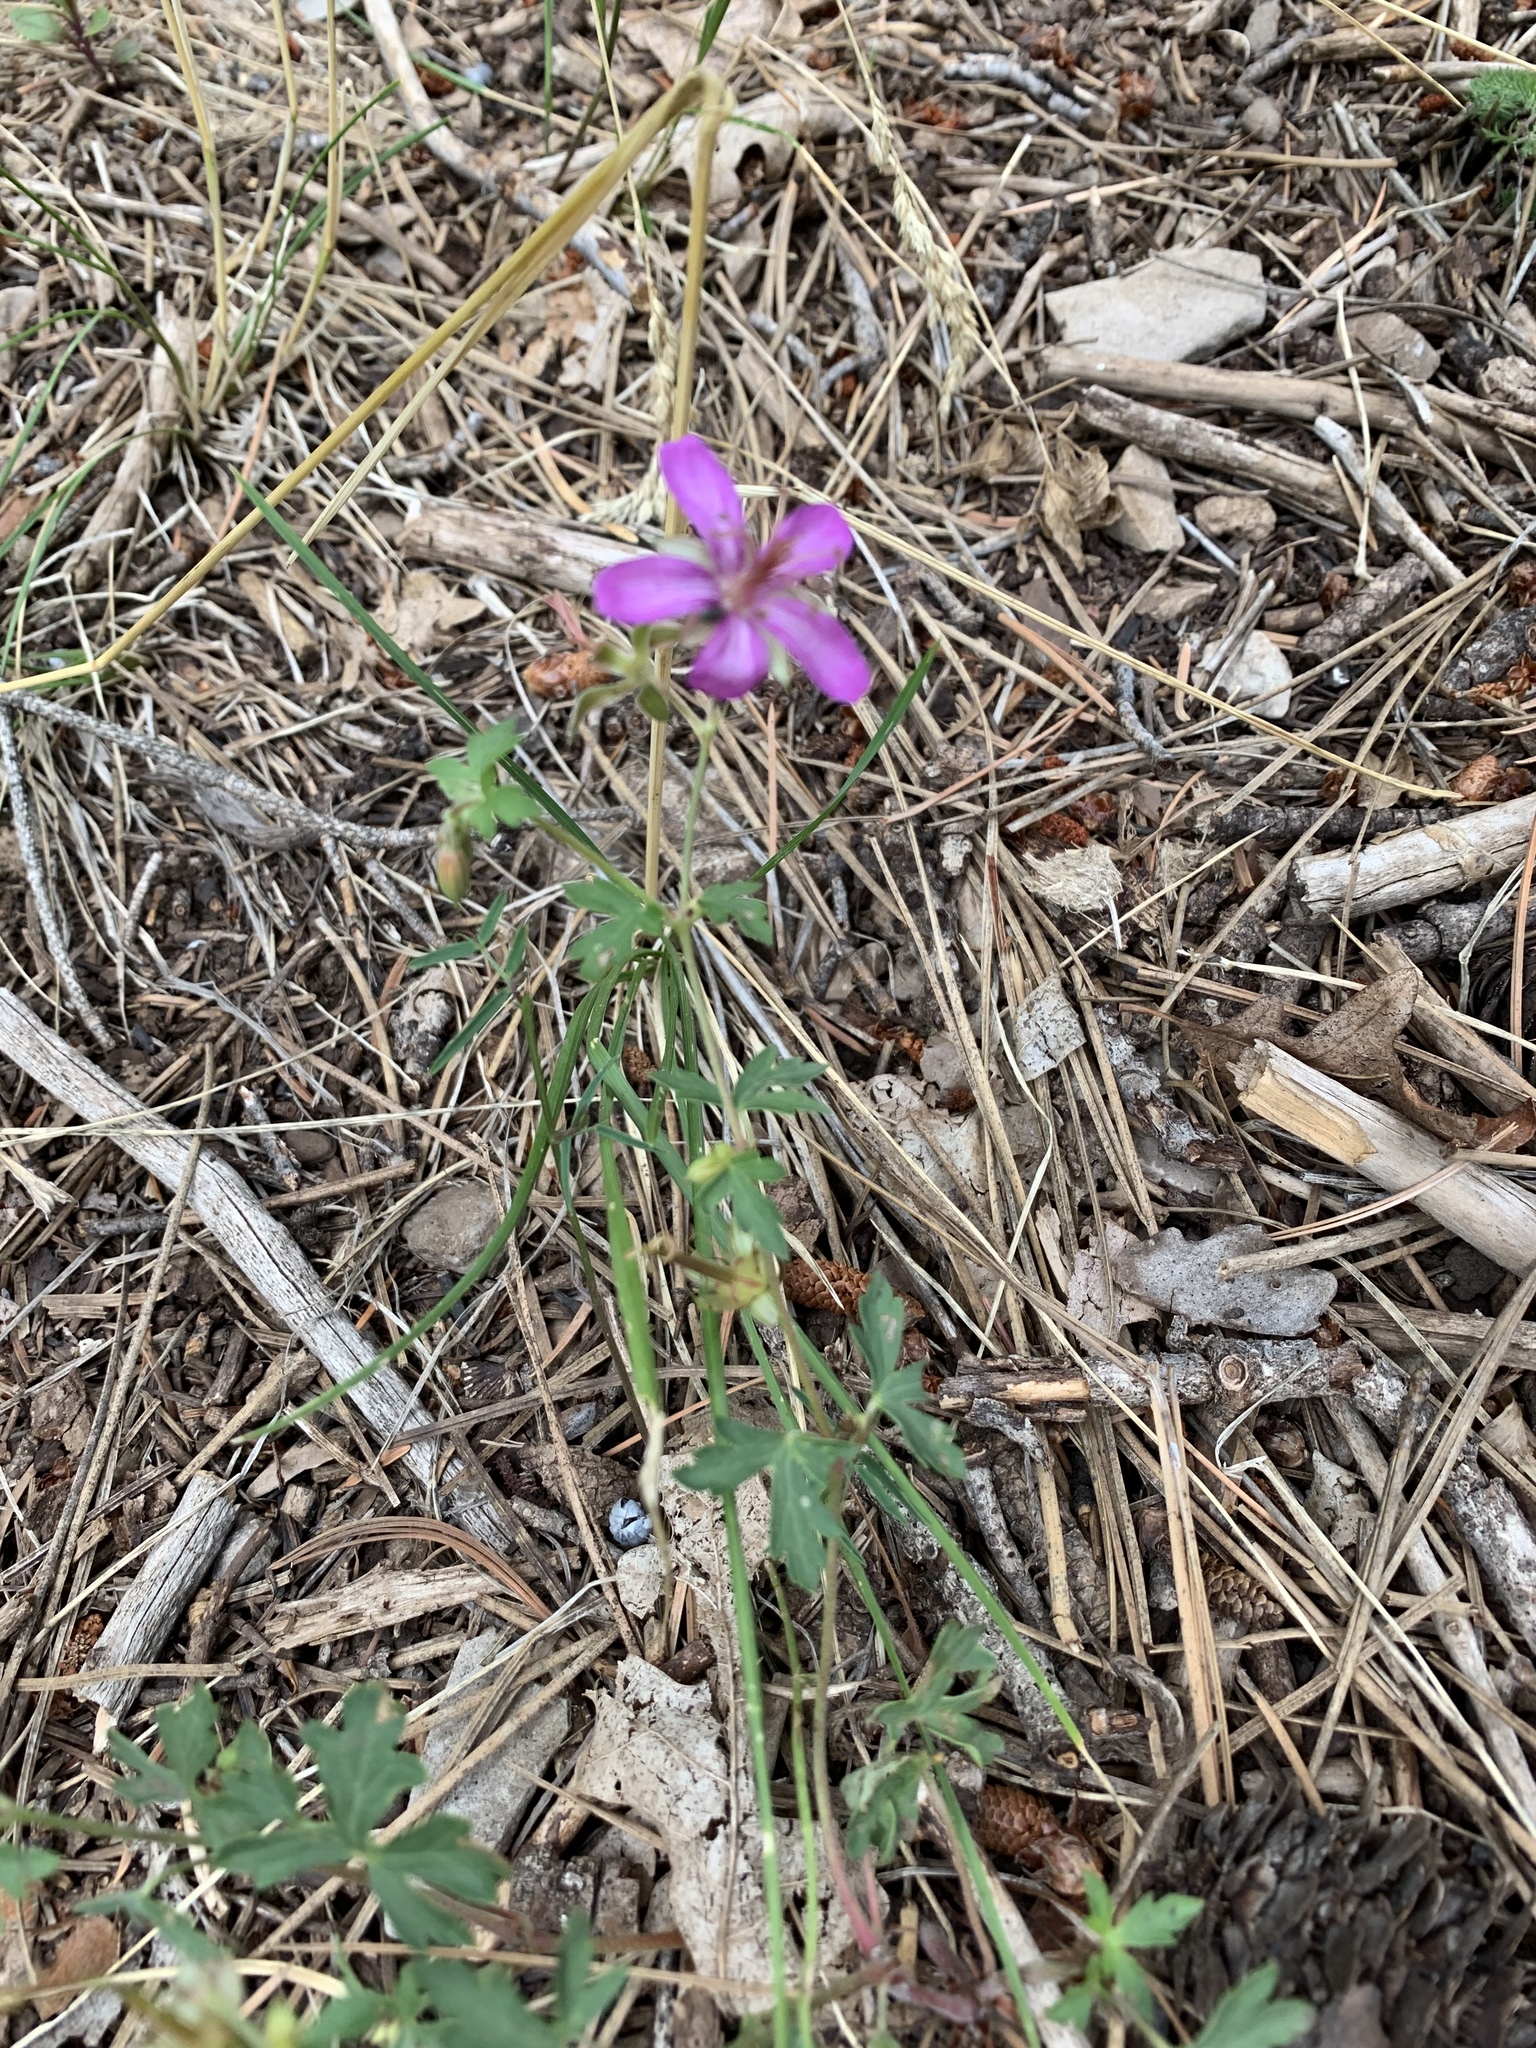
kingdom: Plantae
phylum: Tracheophyta
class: Magnoliopsida
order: Geraniales
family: Geraniaceae
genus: Geranium
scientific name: Geranium caespitosum
